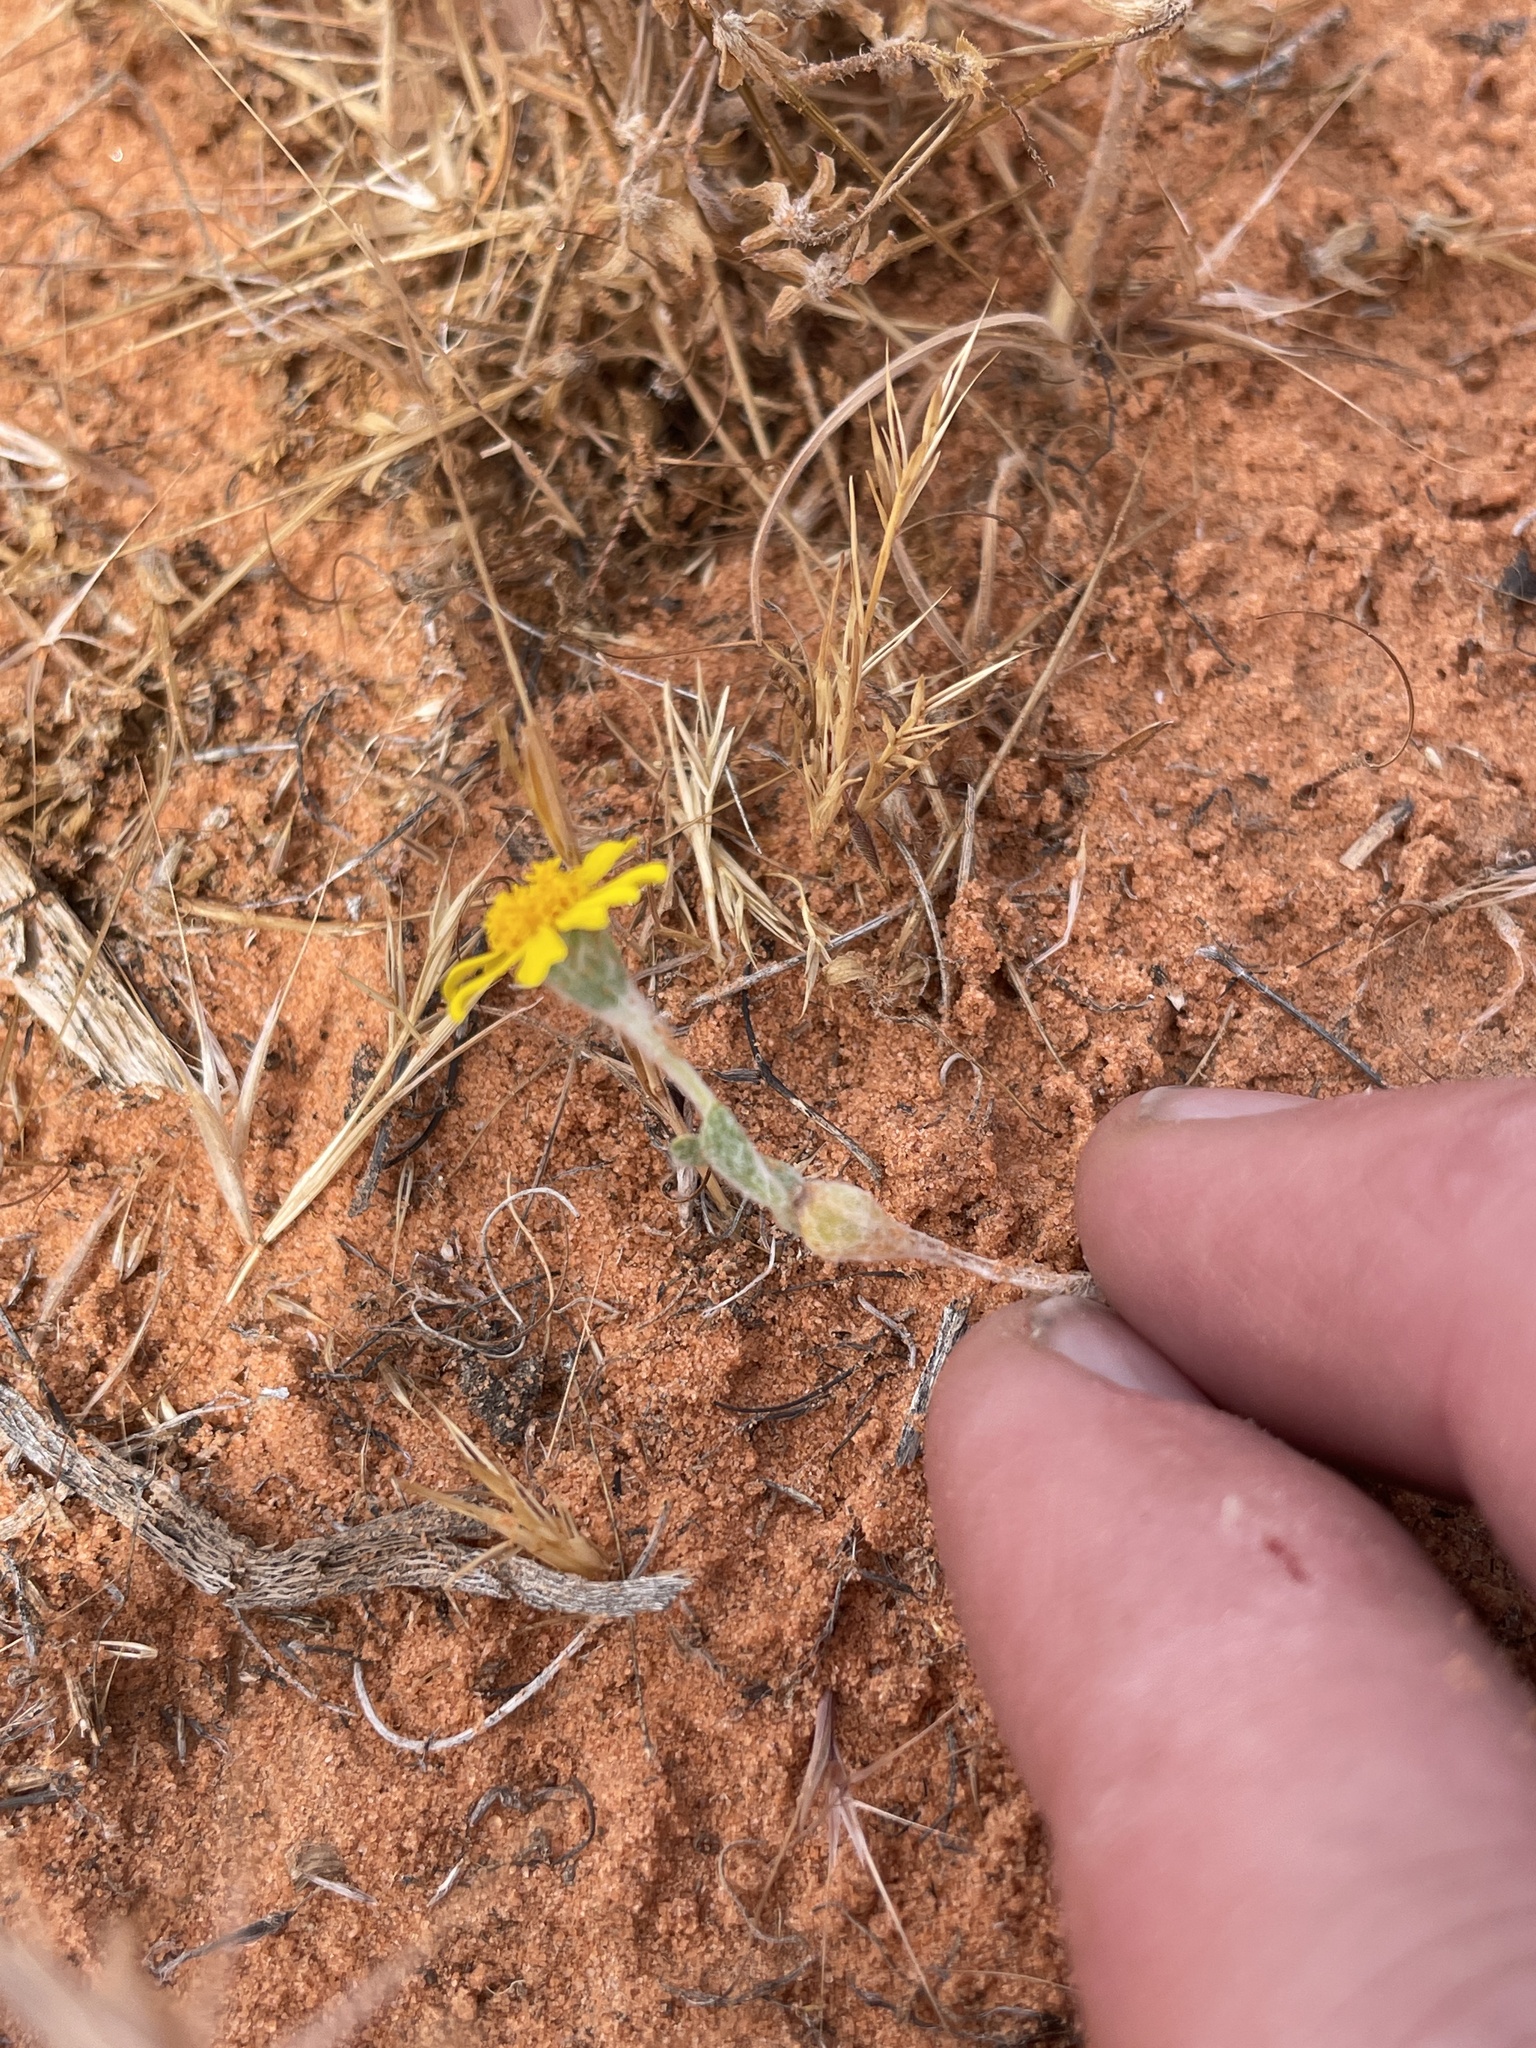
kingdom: Plantae
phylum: Tracheophyta
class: Magnoliopsida
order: Asterales
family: Asteraceae
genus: Eriophyllum
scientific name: Eriophyllum wallacei
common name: Wallace's woolly daisy
